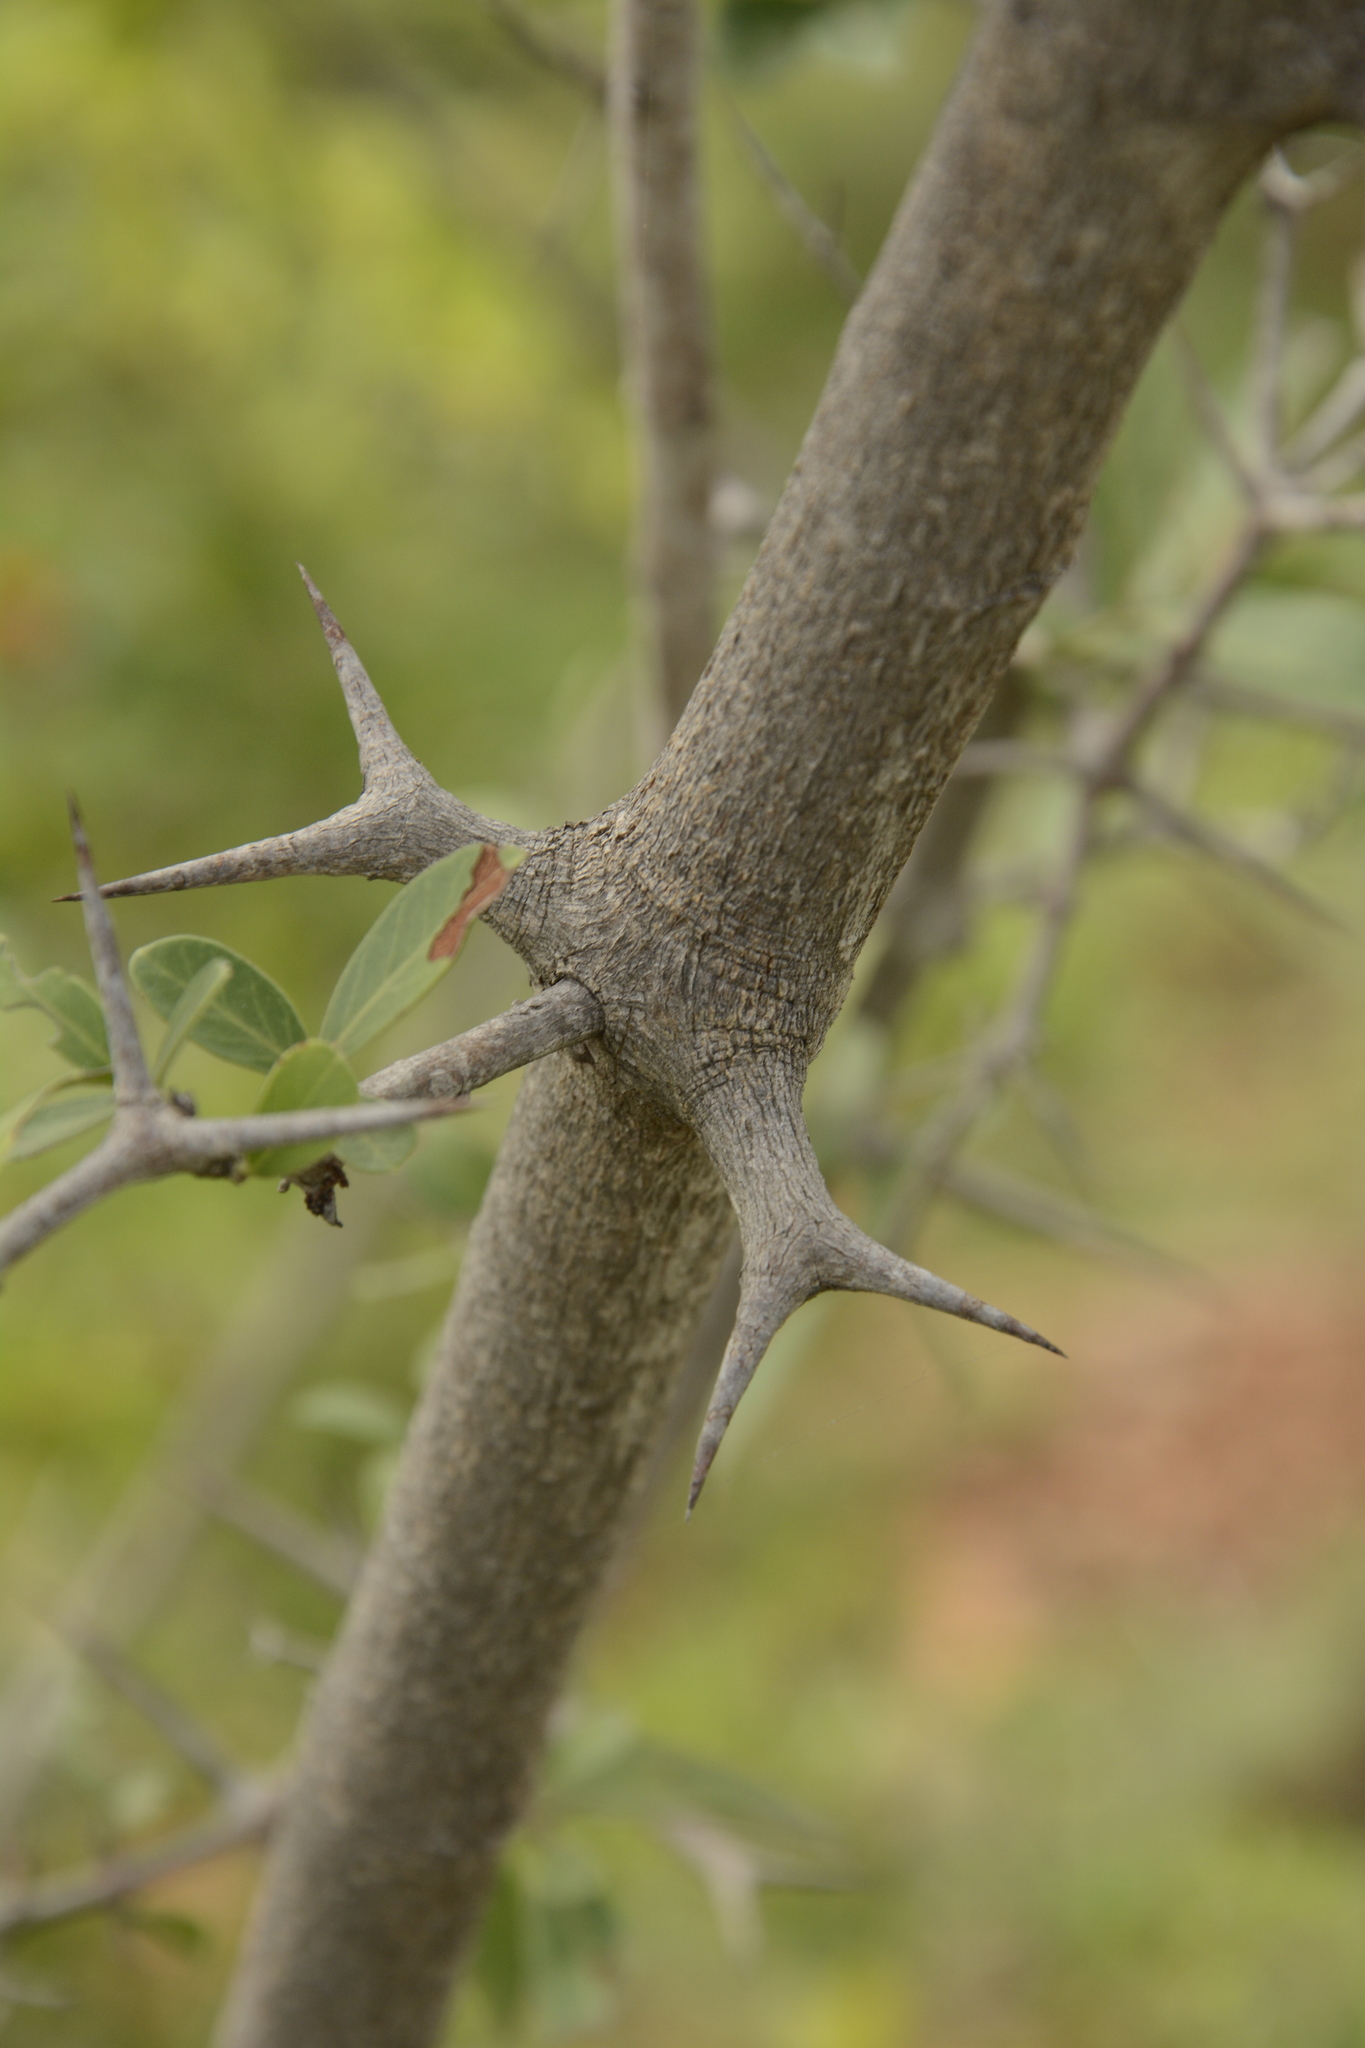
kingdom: Plantae
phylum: Tracheophyta
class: Magnoliopsida
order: Gentianales
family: Apocynaceae
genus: Carissa
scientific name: Carissa spinarum
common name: Egyptian carissa
